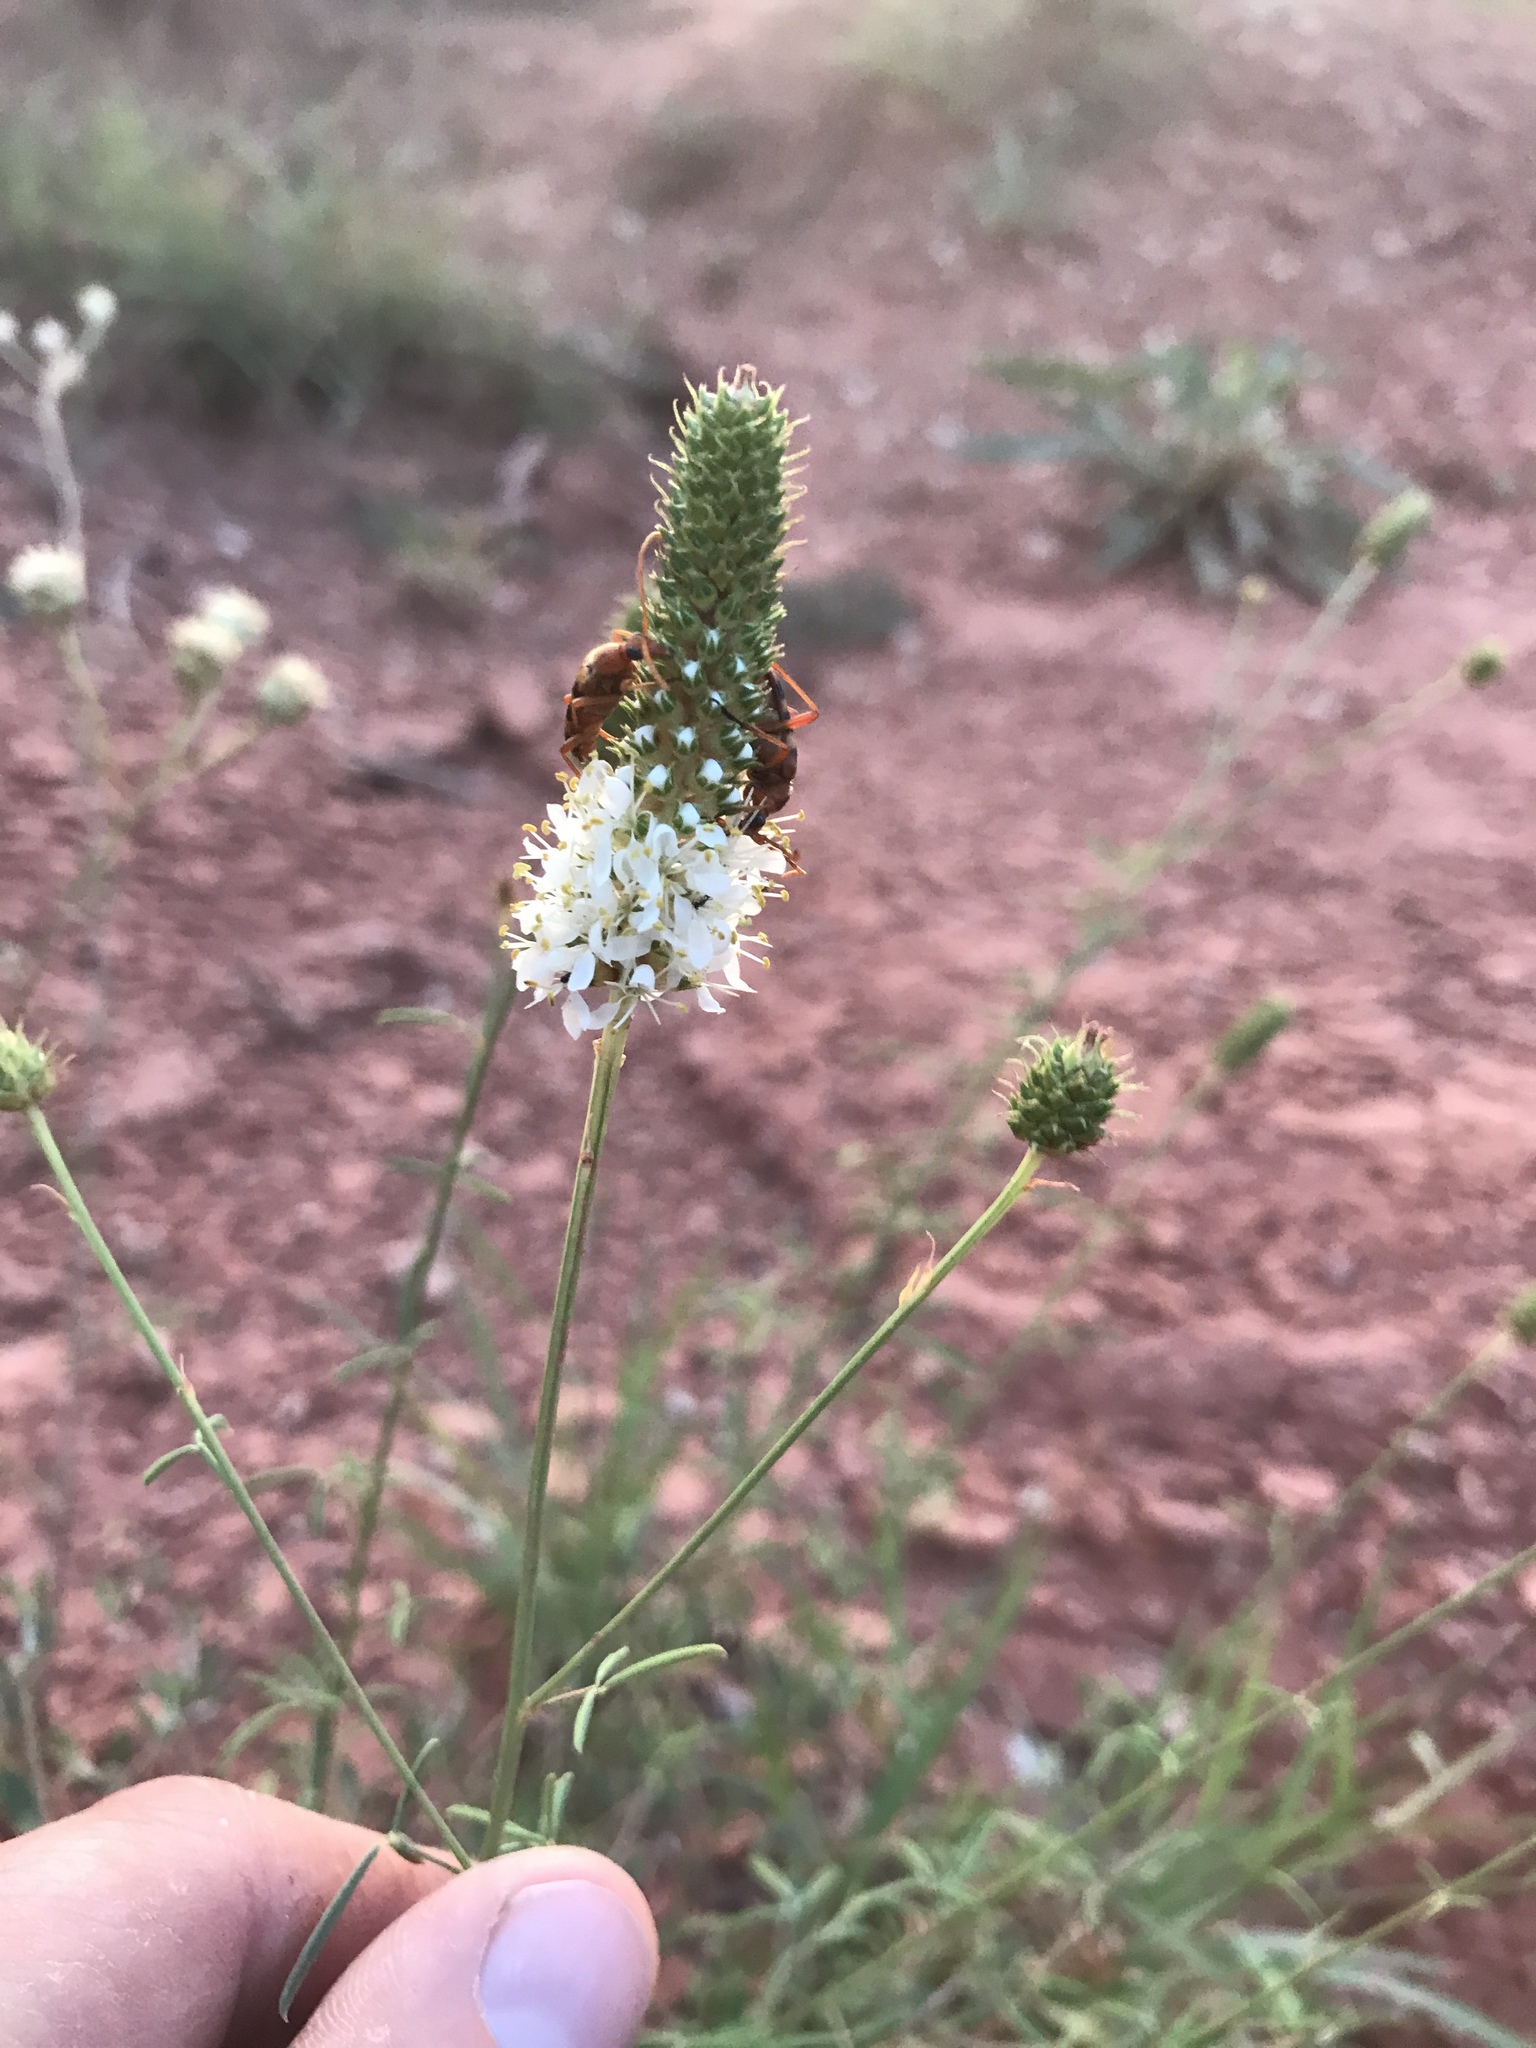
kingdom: Plantae
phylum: Tracheophyta
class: Magnoliopsida
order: Fabales
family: Fabaceae
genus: Dalea
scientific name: Dalea candida
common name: White prairie-clover
